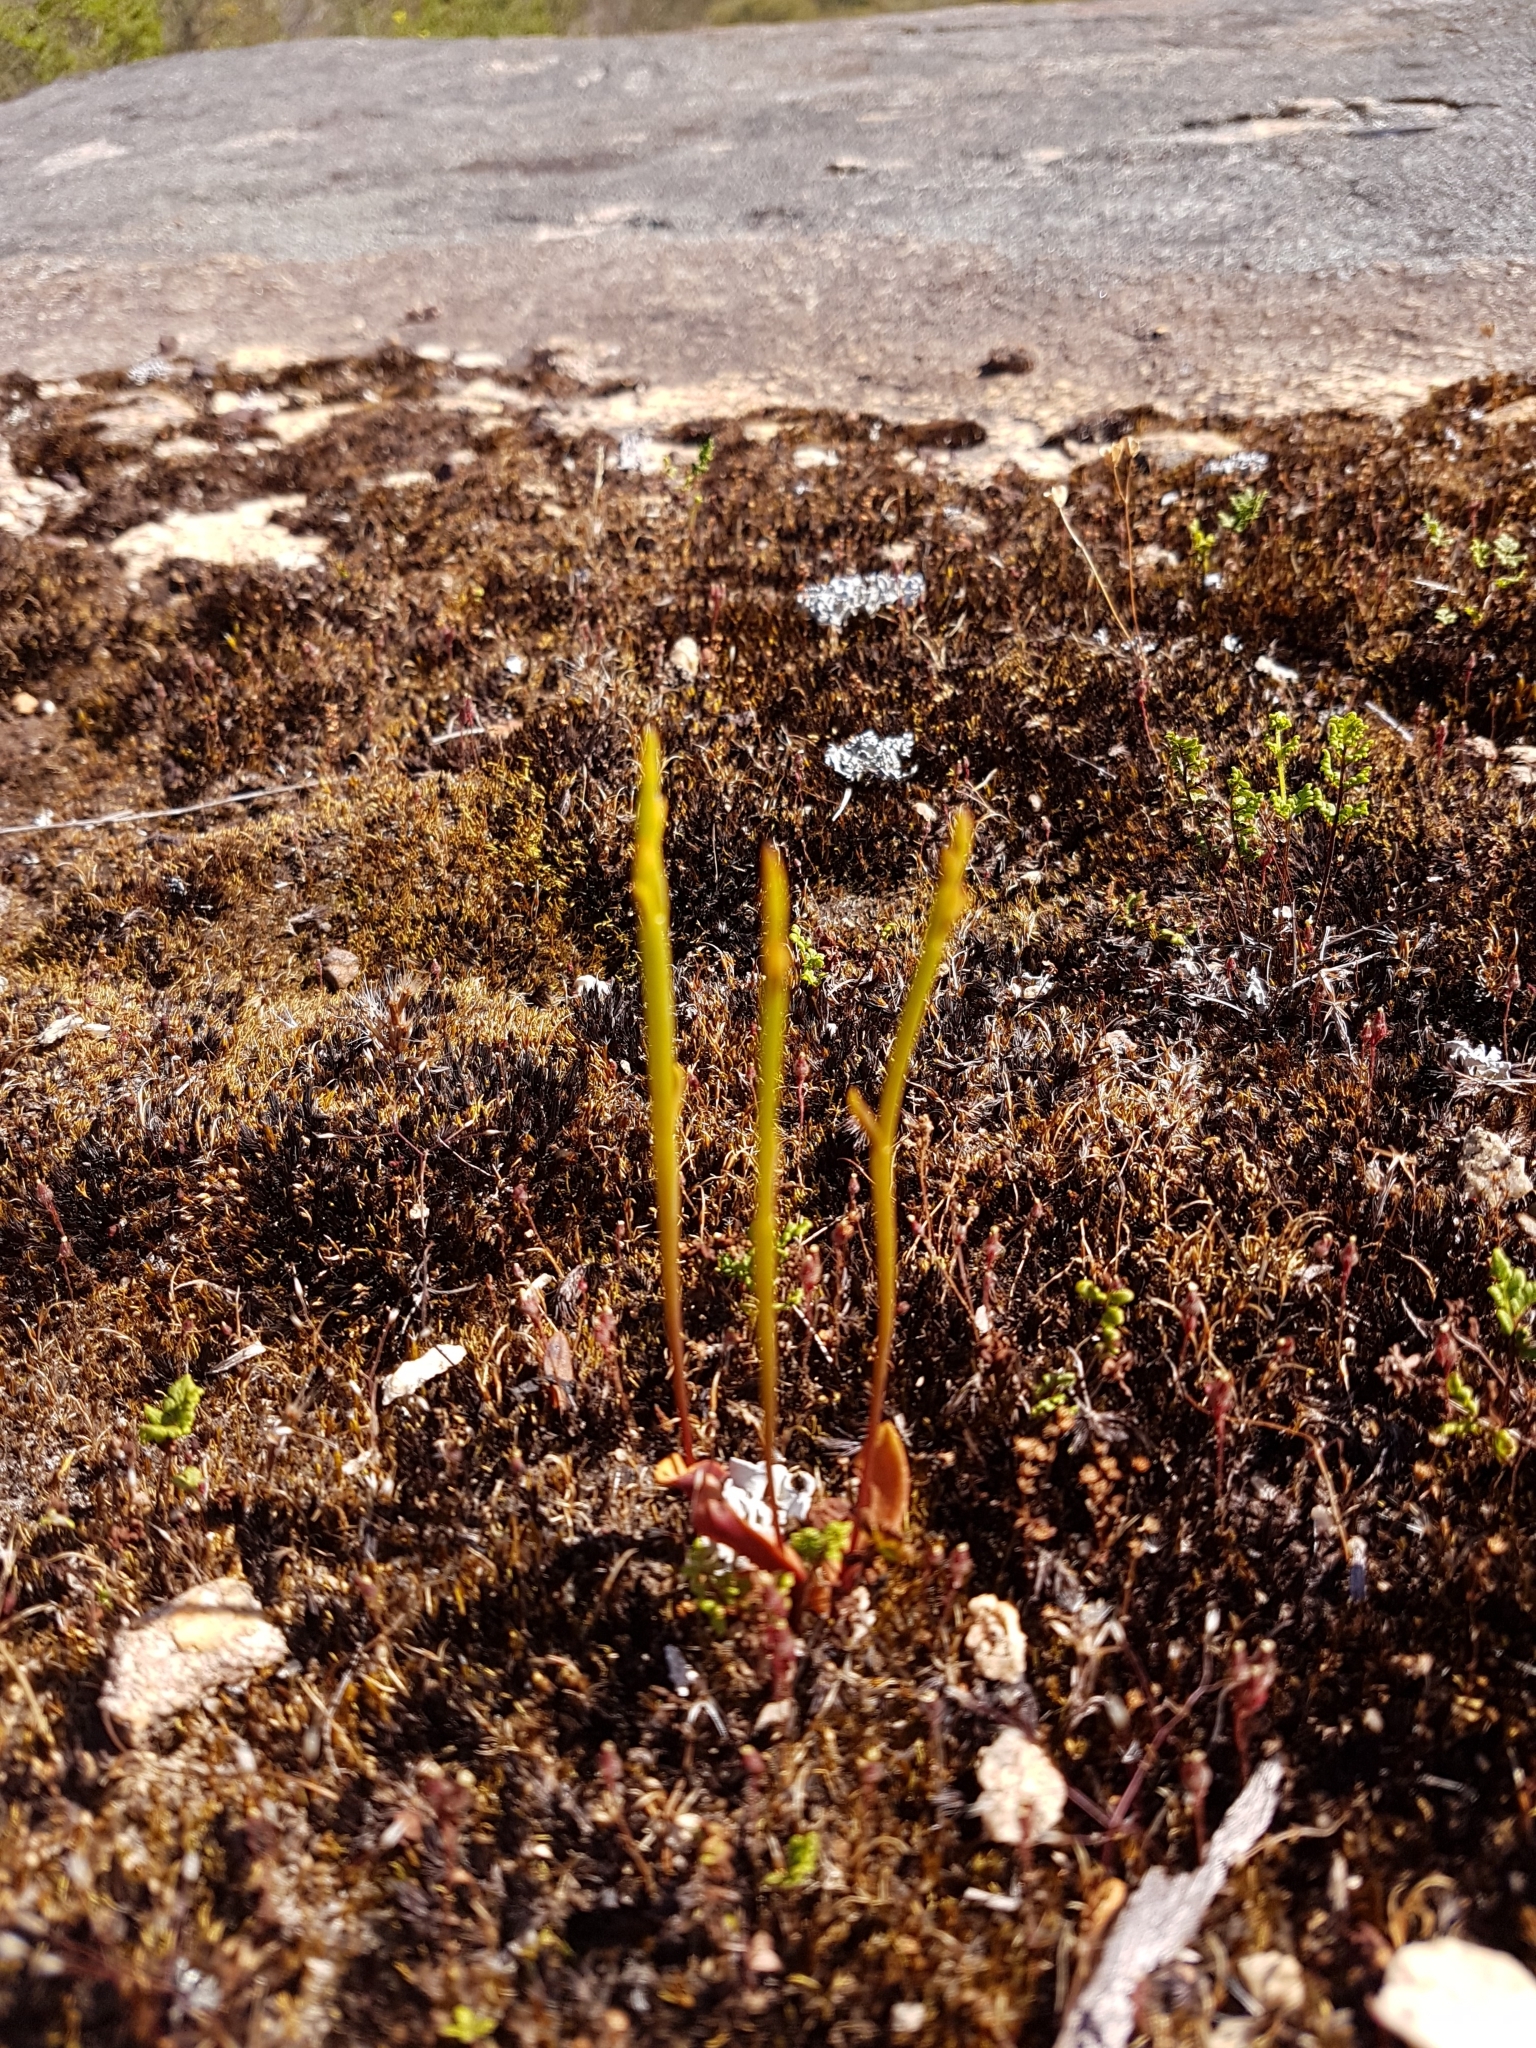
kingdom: Plantae
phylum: Tracheophyta
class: Liliopsida
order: Asparagales
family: Orchidaceae
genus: Spiculaea
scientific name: Spiculaea ciliata
